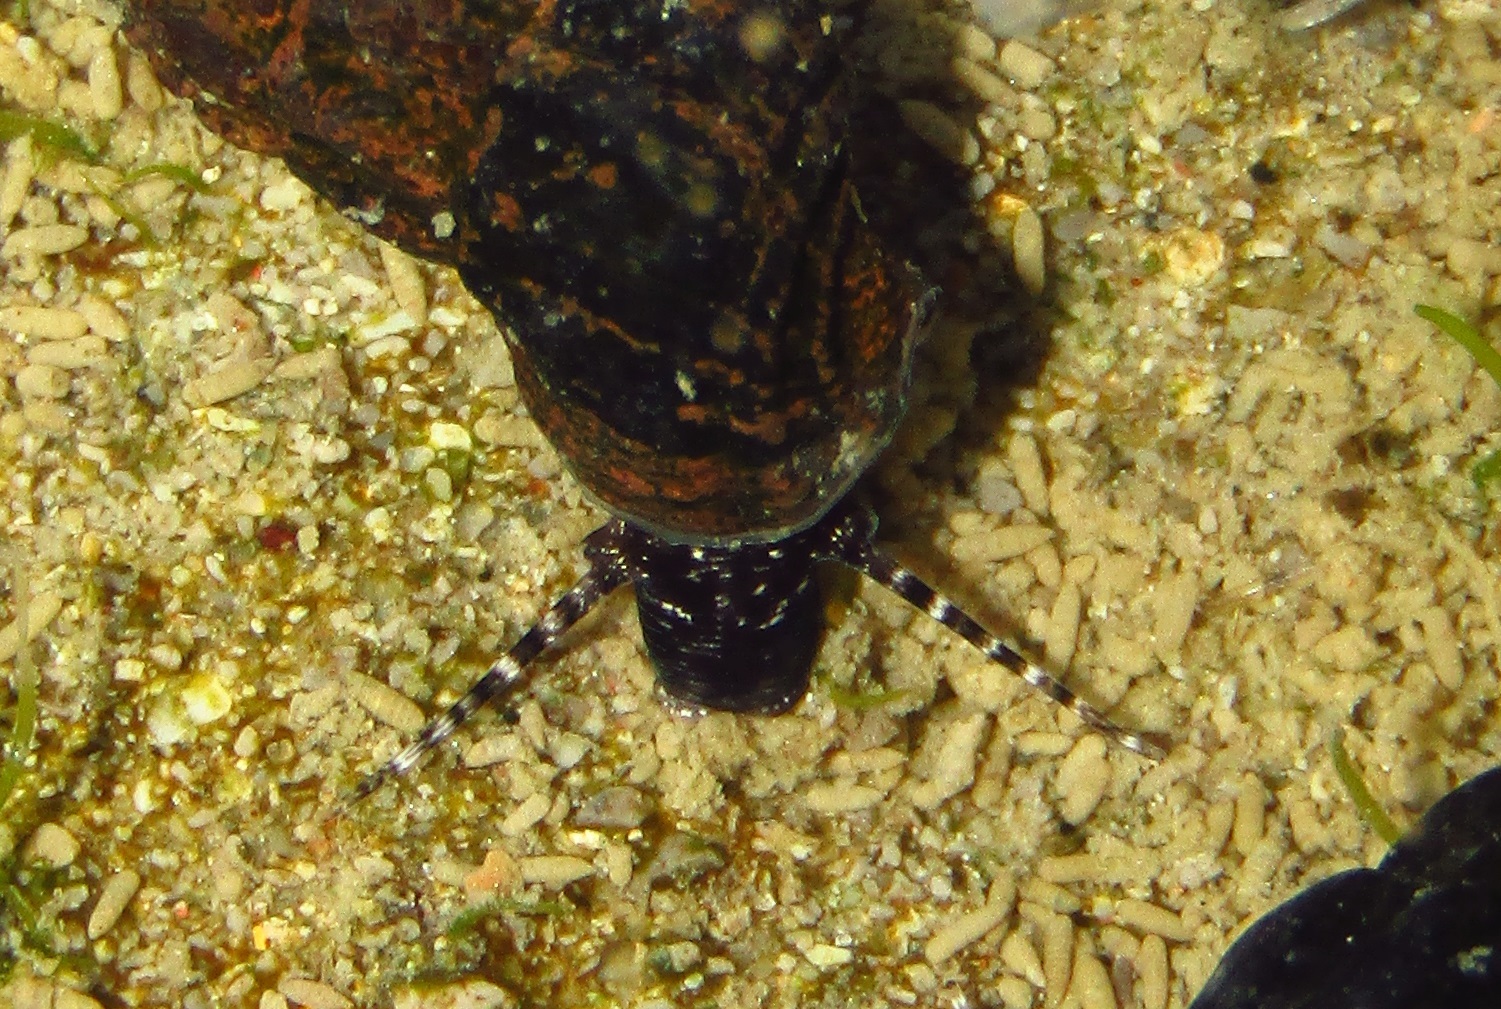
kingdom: Animalia
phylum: Mollusca
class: Gastropoda
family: Batillariidae
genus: Zeacumantus
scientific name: Zeacumantus subcarinatus
